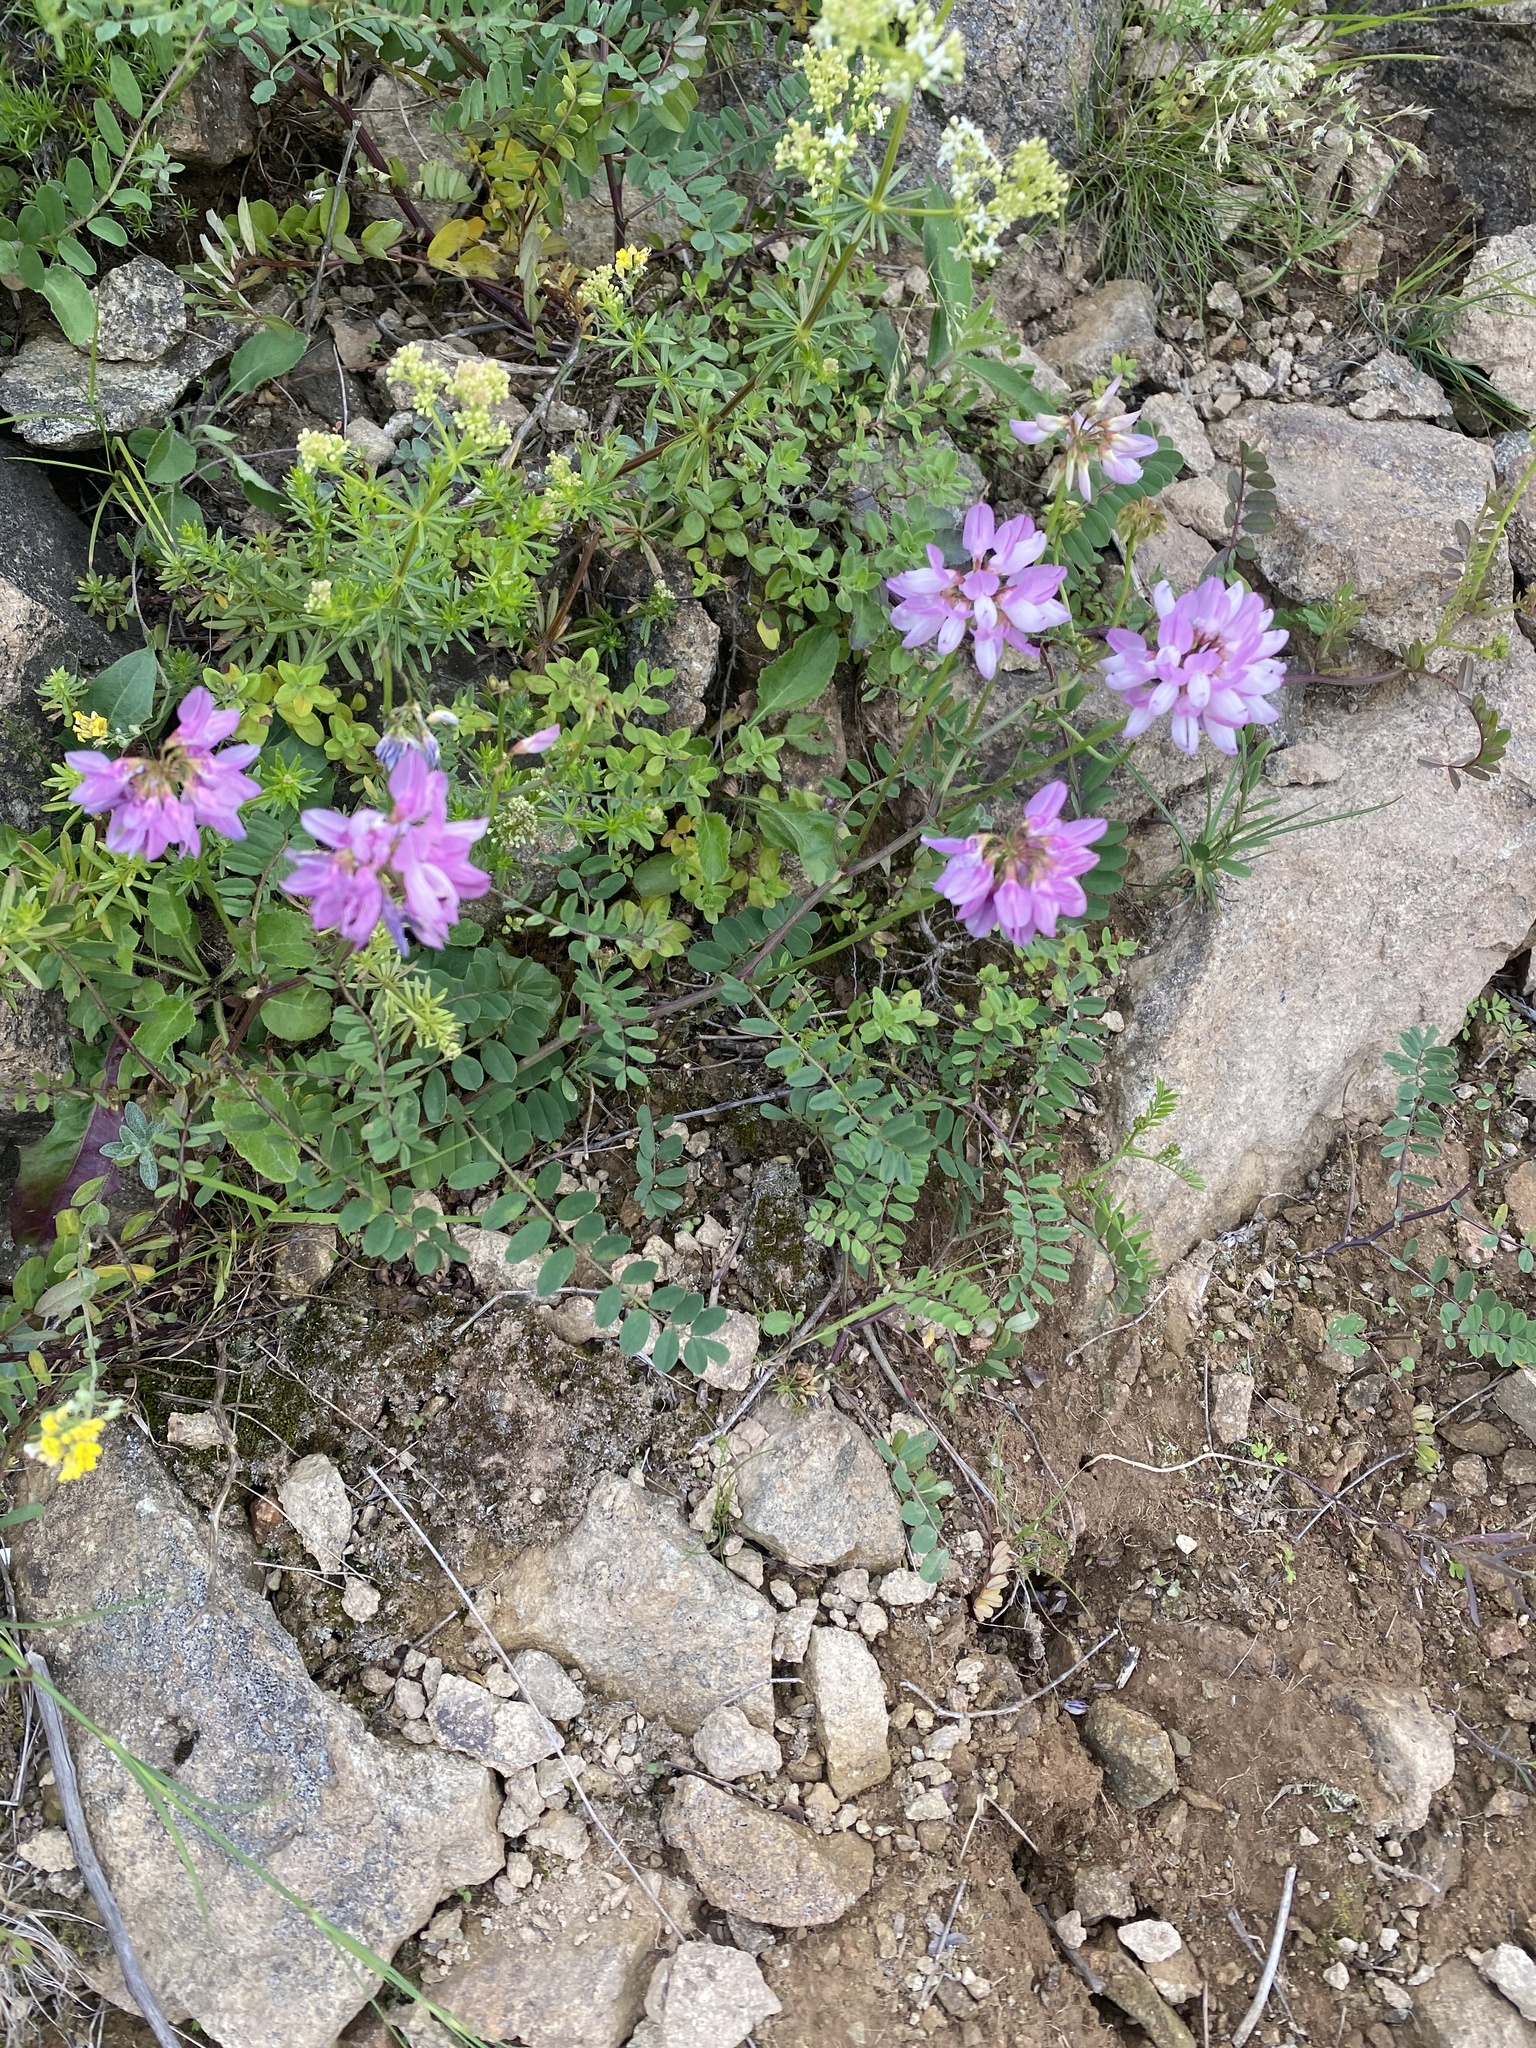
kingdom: Plantae
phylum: Tracheophyta
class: Magnoliopsida
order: Fabales
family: Fabaceae
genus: Coronilla
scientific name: Coronilla varia
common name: Crownvetch
